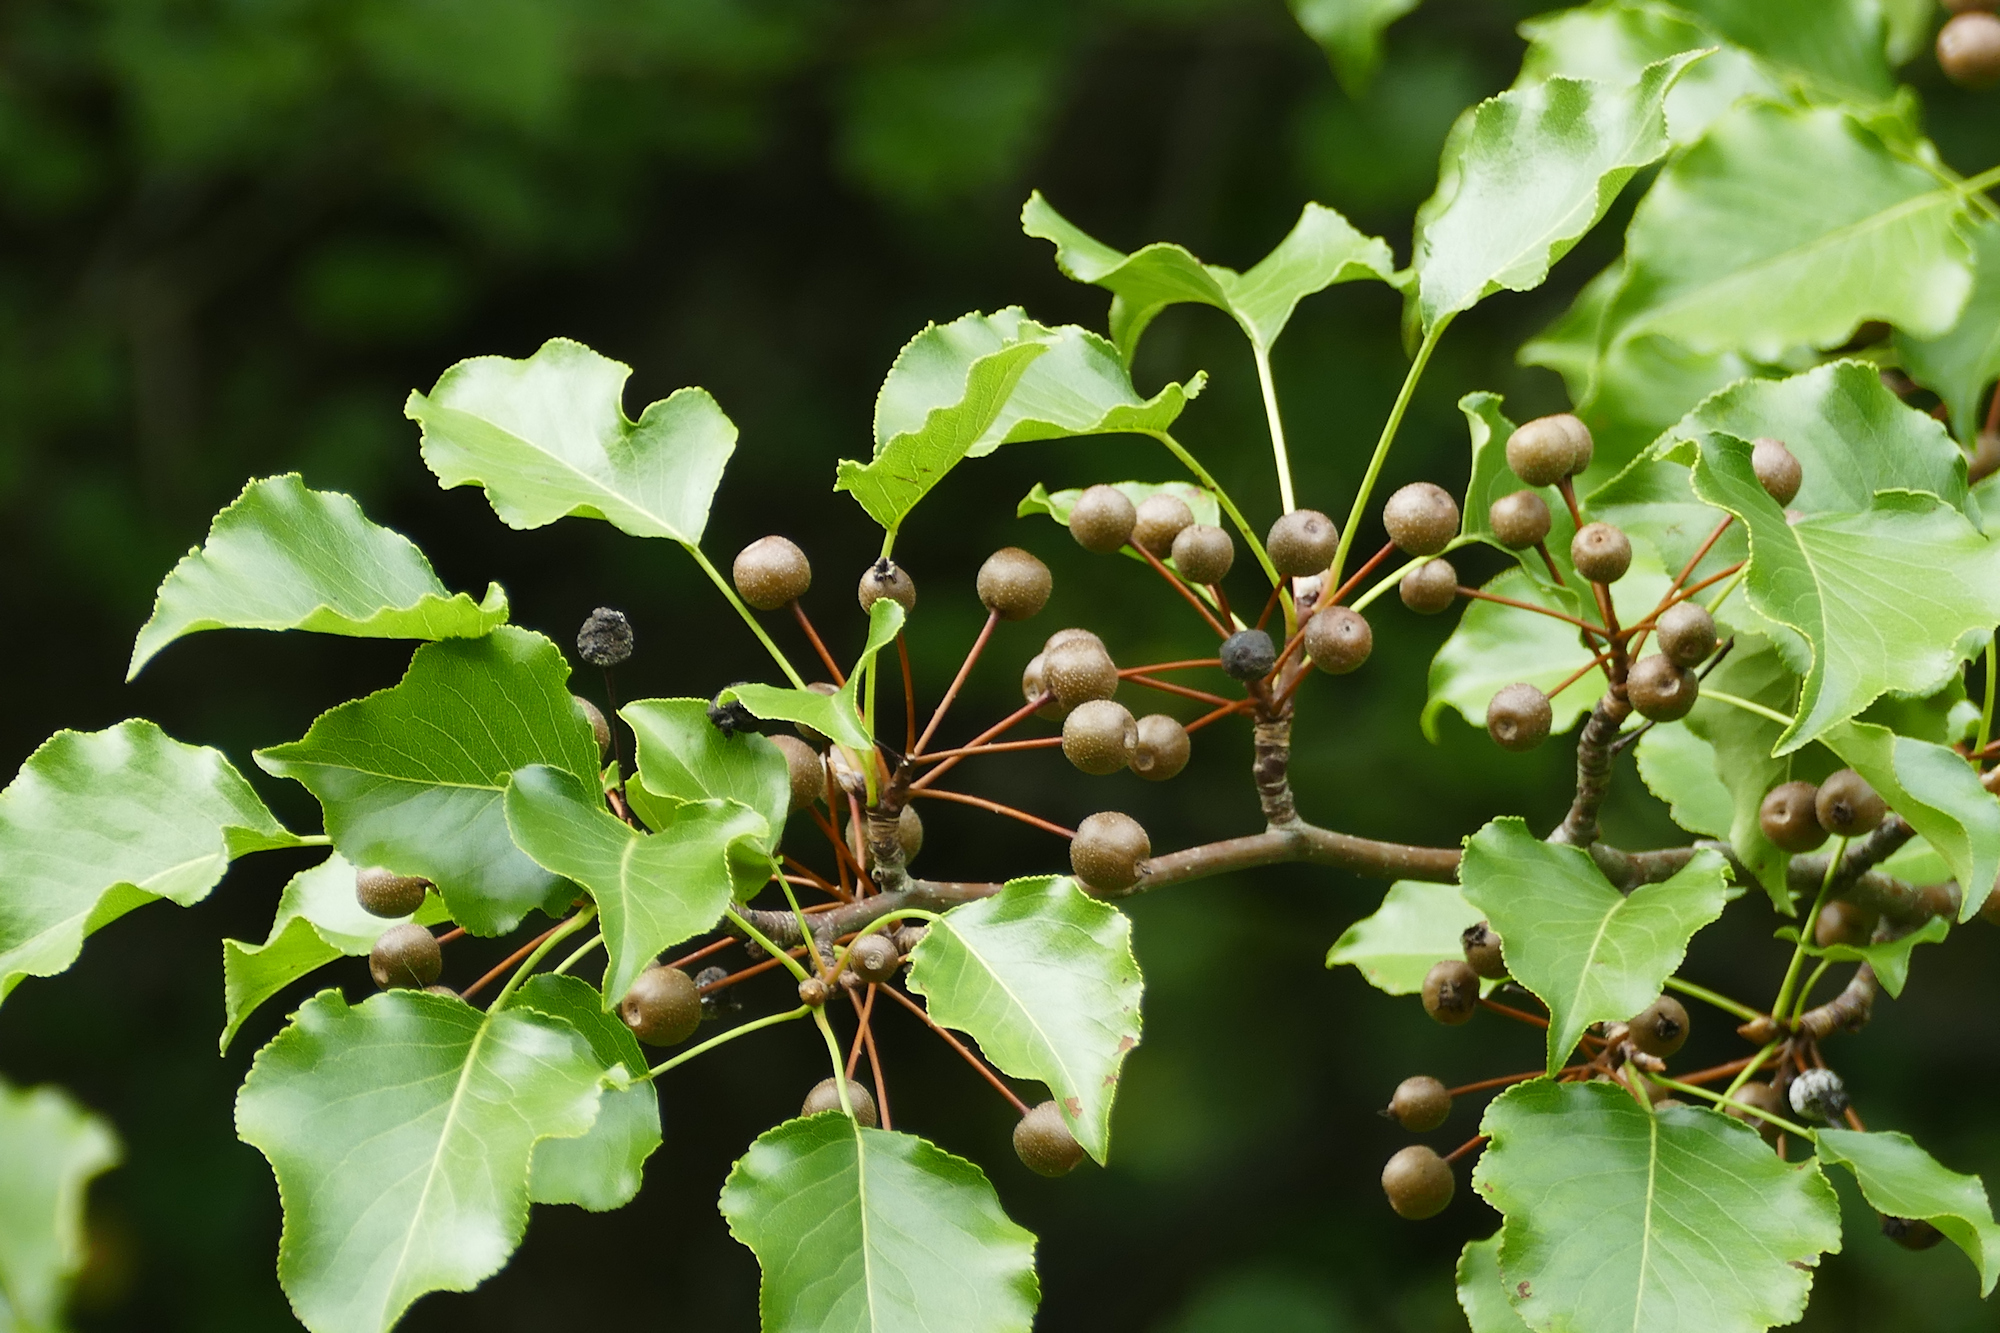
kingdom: Plantae
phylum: Tracheophyta
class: Magnoliopsida
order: Rosales
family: Rosaceae
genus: Pyrus
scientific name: Pyrus calleryana
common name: Callery pear
